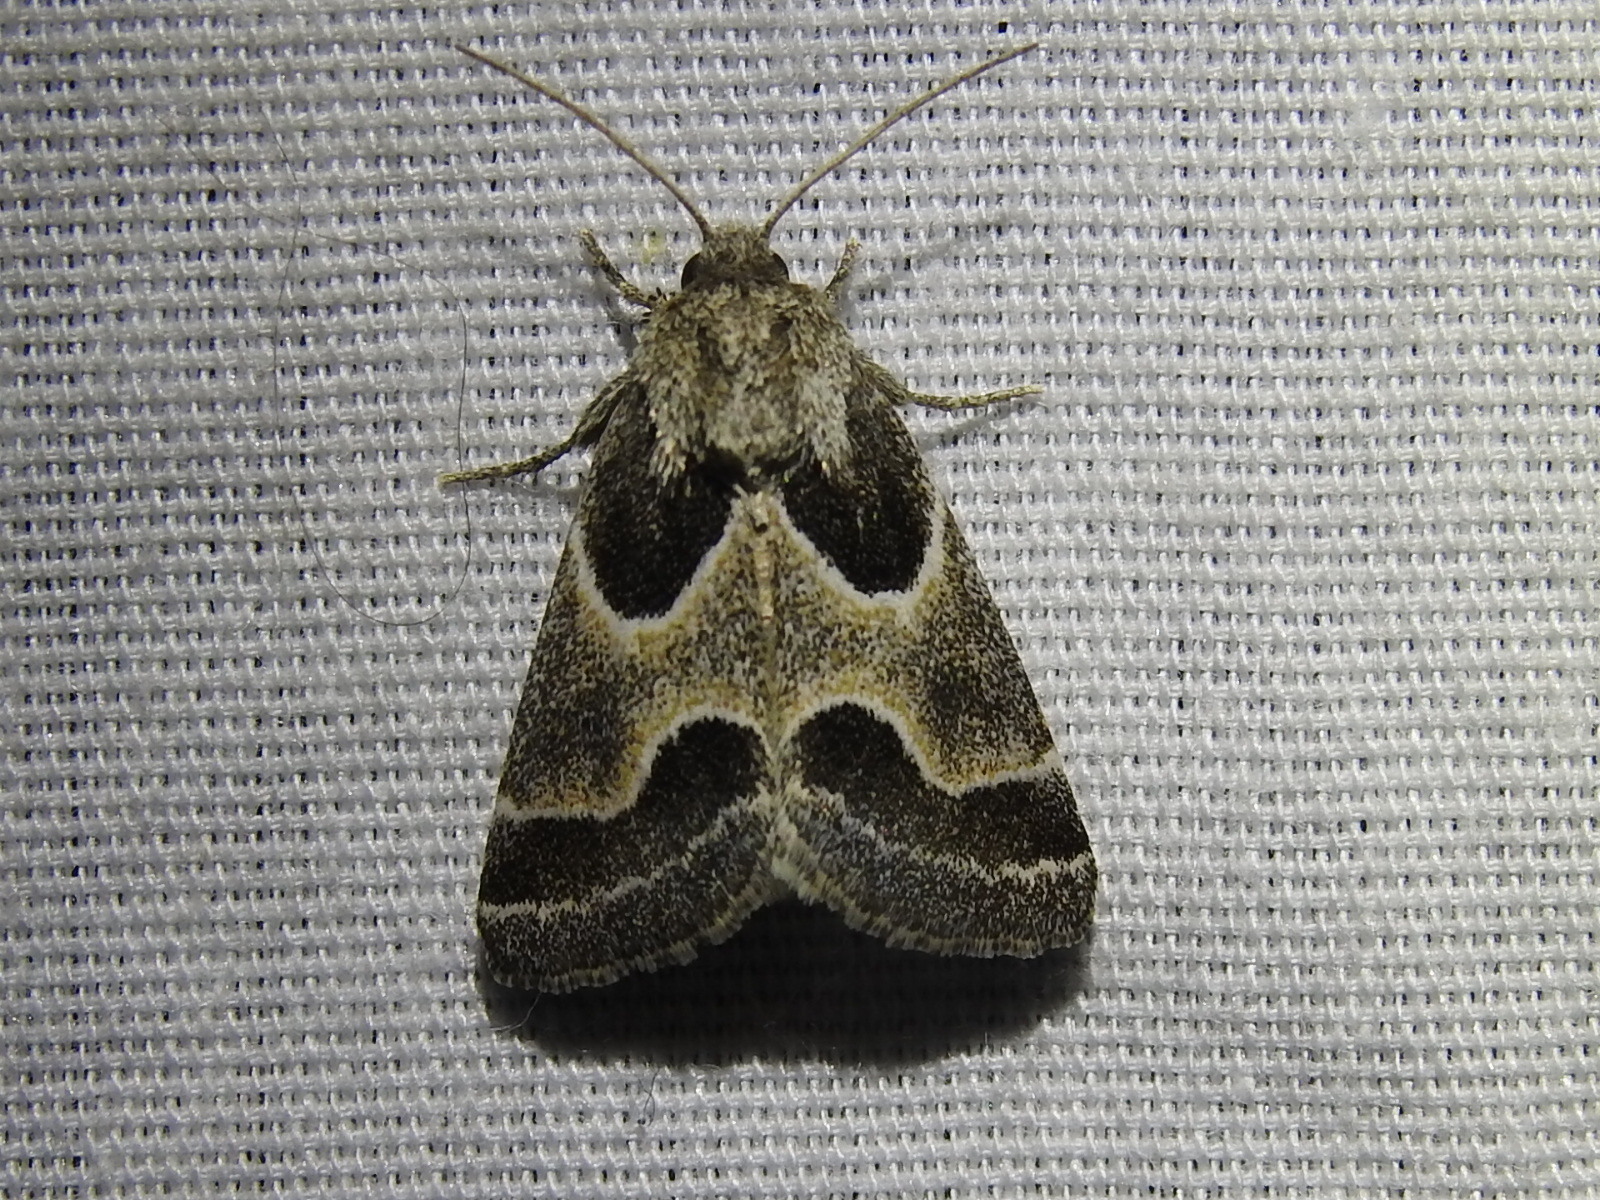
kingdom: Animalia
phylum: Arthropoda
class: Insecta
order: Lepidoptera
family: Noctuidae
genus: Schinia
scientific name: Schinia rivulosa
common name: Scarce meal-moth
